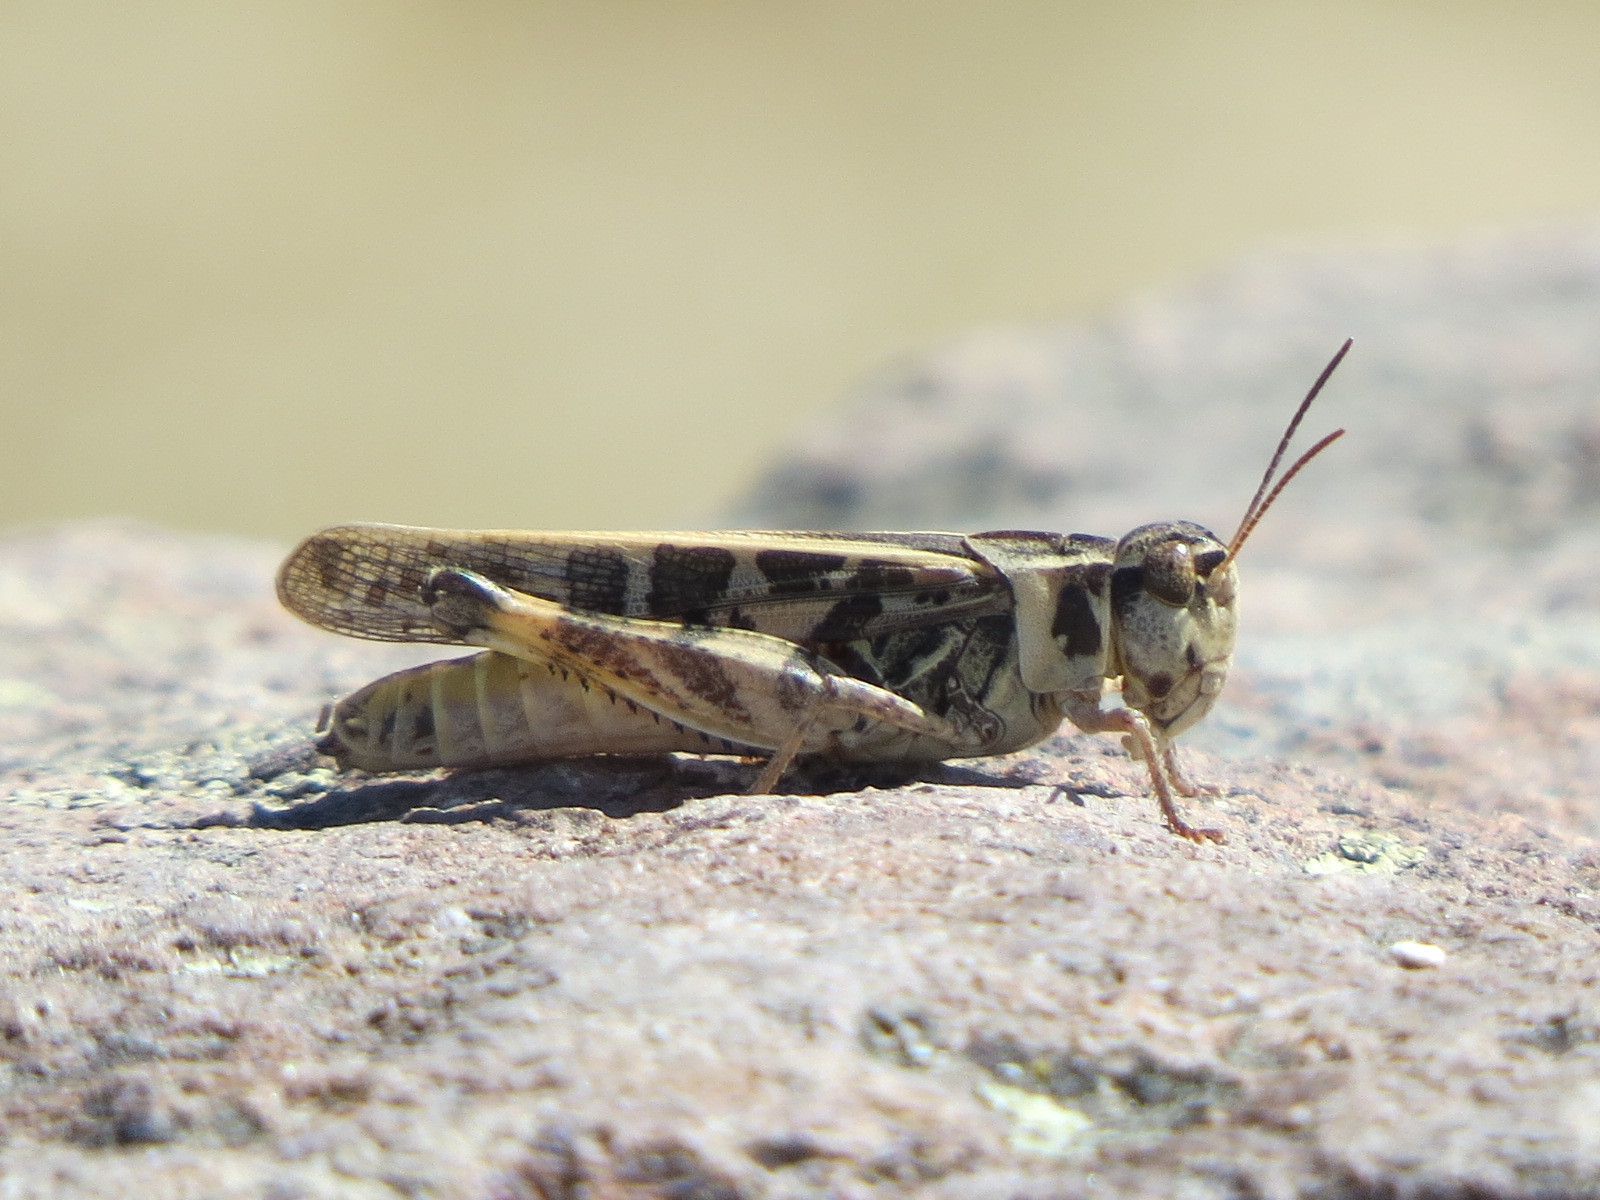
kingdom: Animalia
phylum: Arthropoda
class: Insecta
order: Orthoptera
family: Acrididae
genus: Camnula
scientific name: Camnula pellucida
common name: Clear-winged grasshopper
